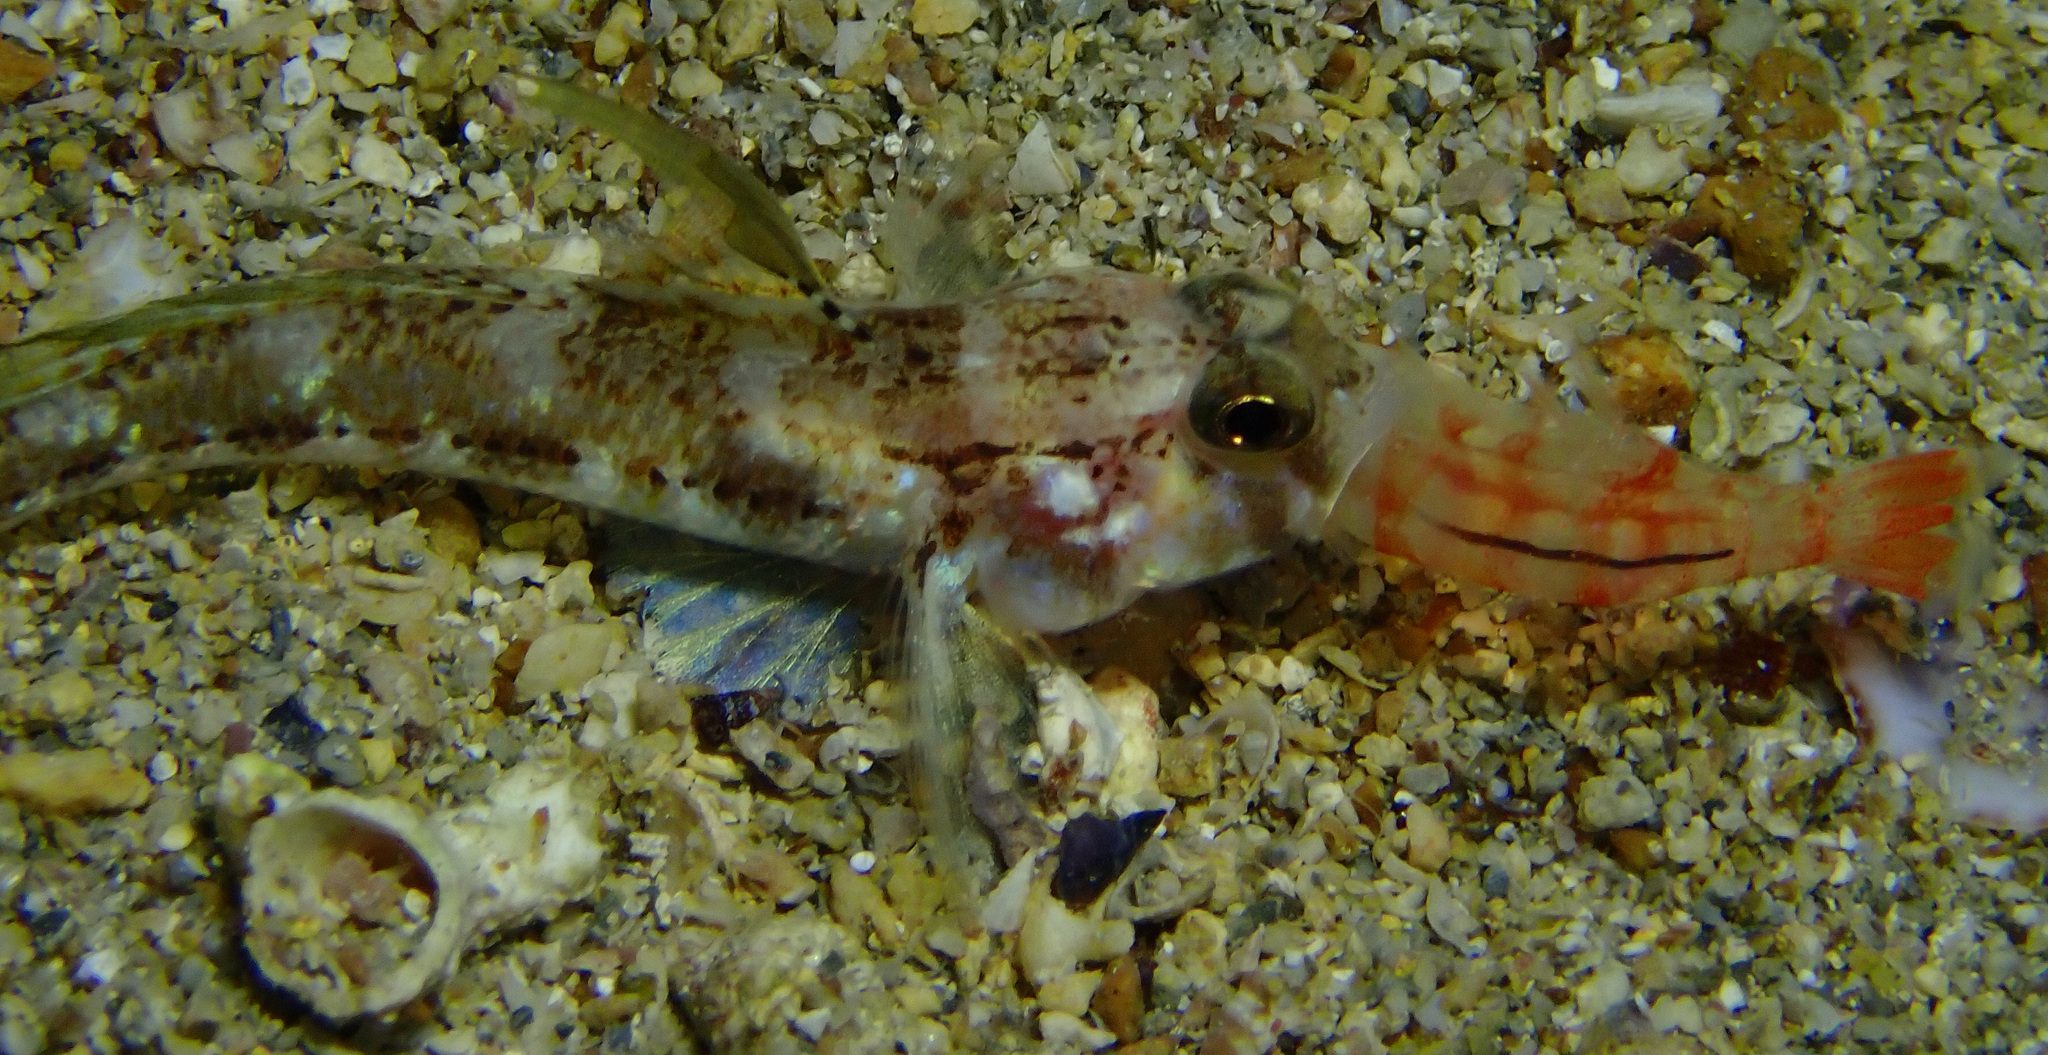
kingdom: Animalia
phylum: Chordata
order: Perciformes
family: Gobiidae
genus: Gobius
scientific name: Gobius roulei
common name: Roule's goby
